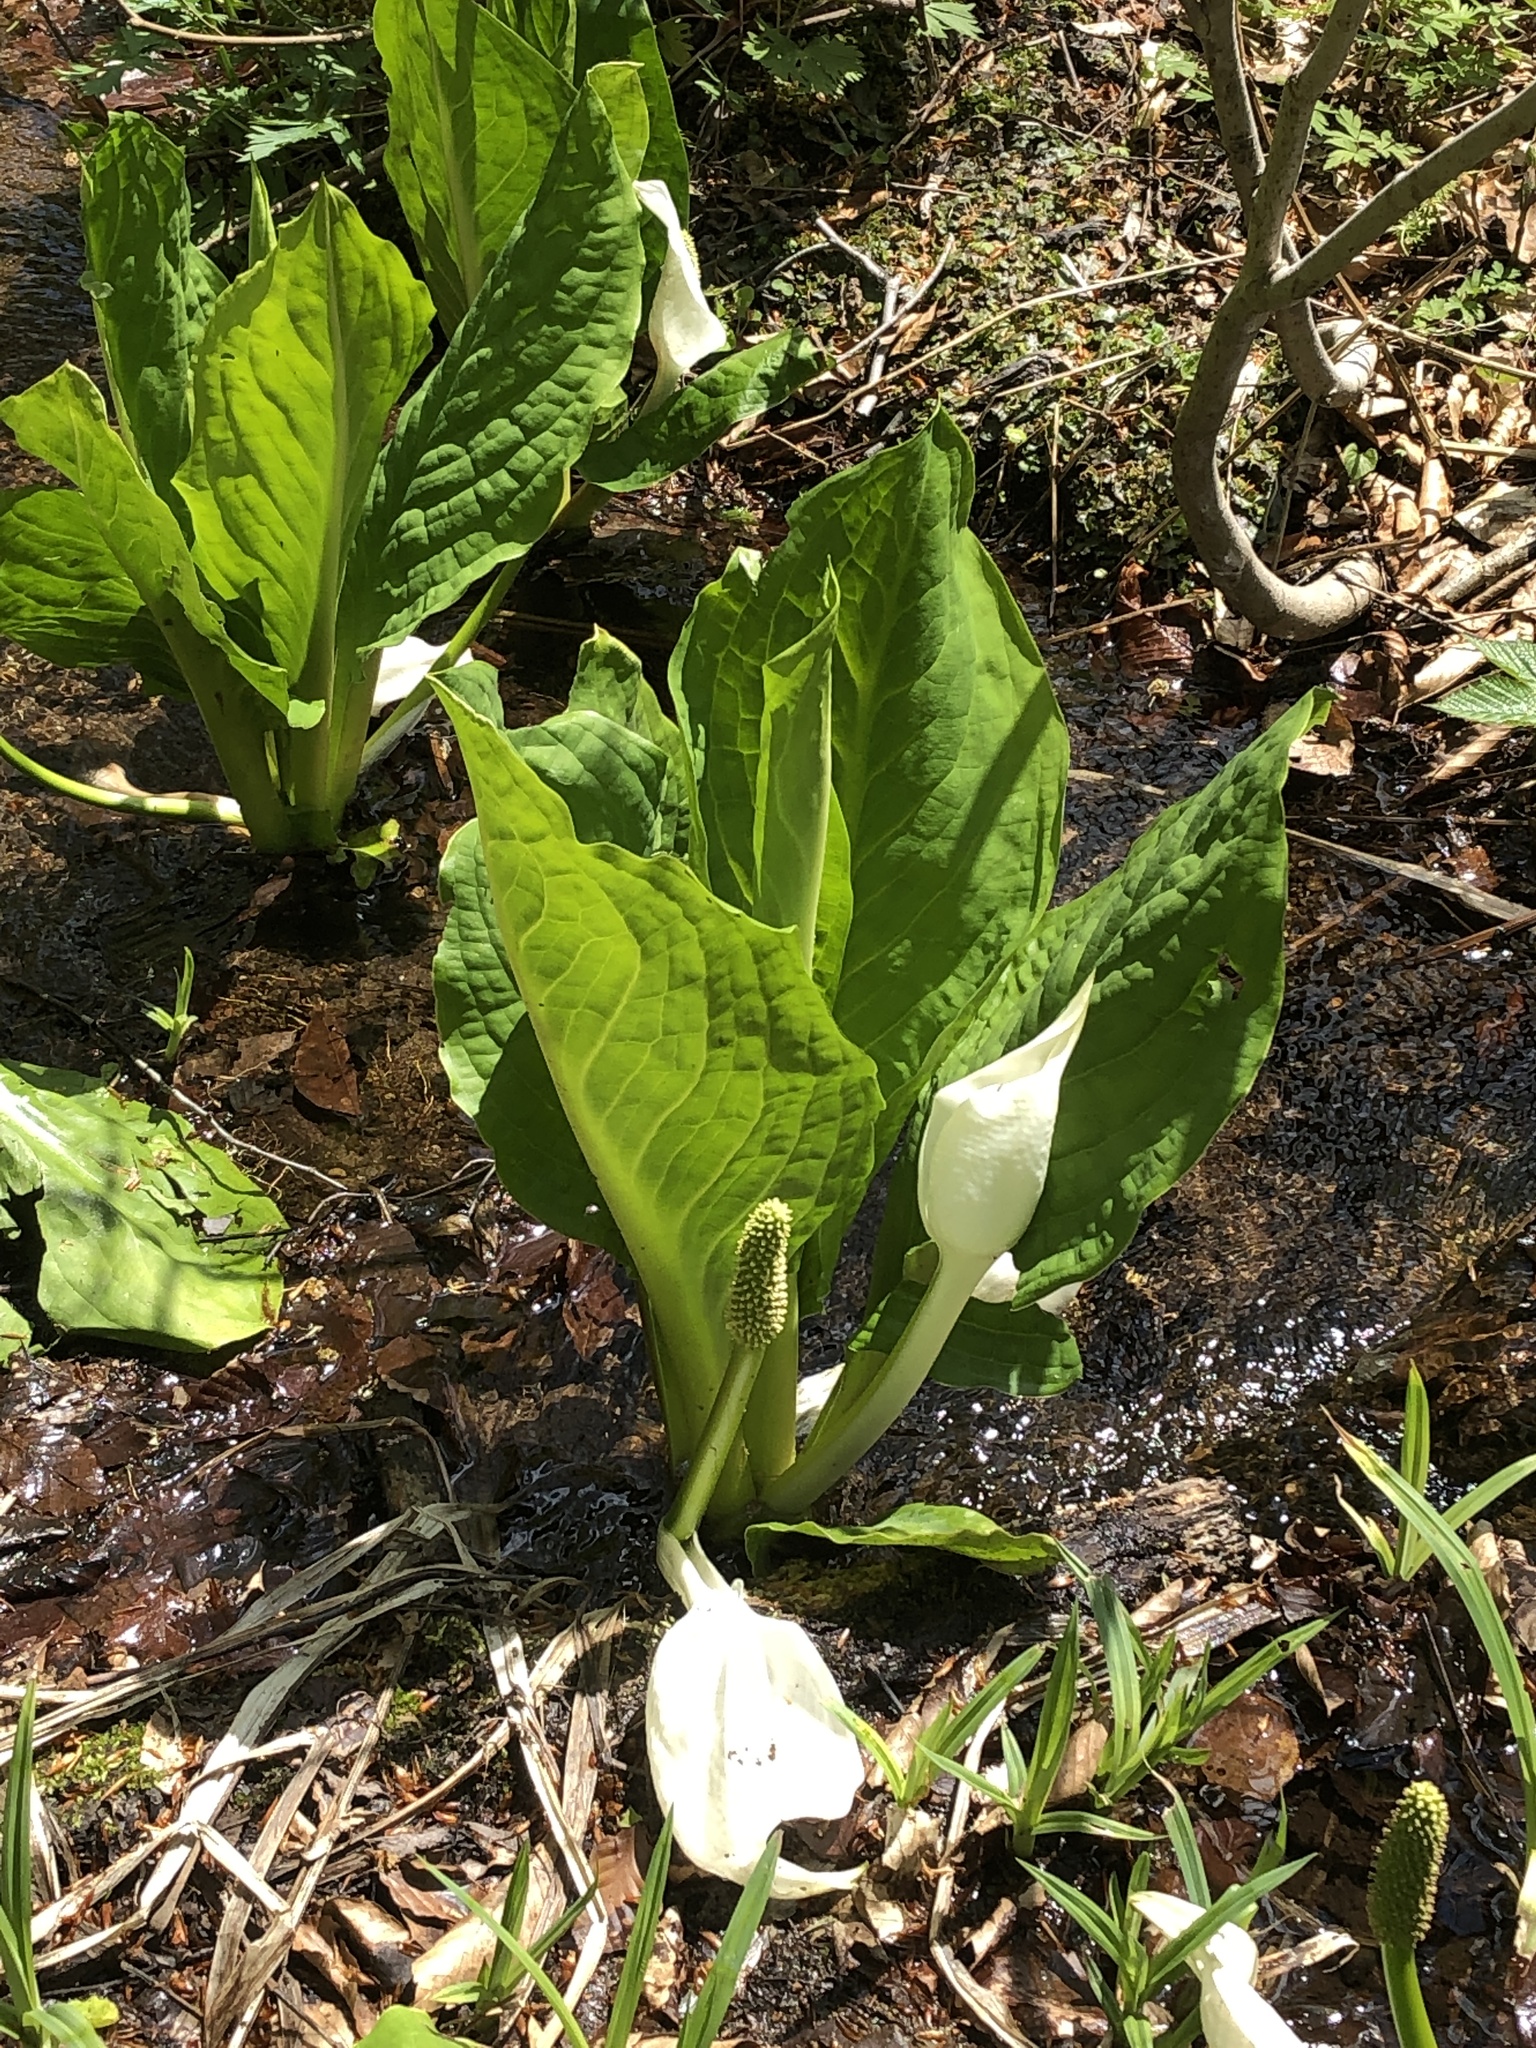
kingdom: Plantae
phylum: Tracheophyta
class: Liliopsida
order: Alismatales
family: Araceae
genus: Lysichiton
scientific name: Lysichiton camtschatcensis
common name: Asian skunk-cabbage
